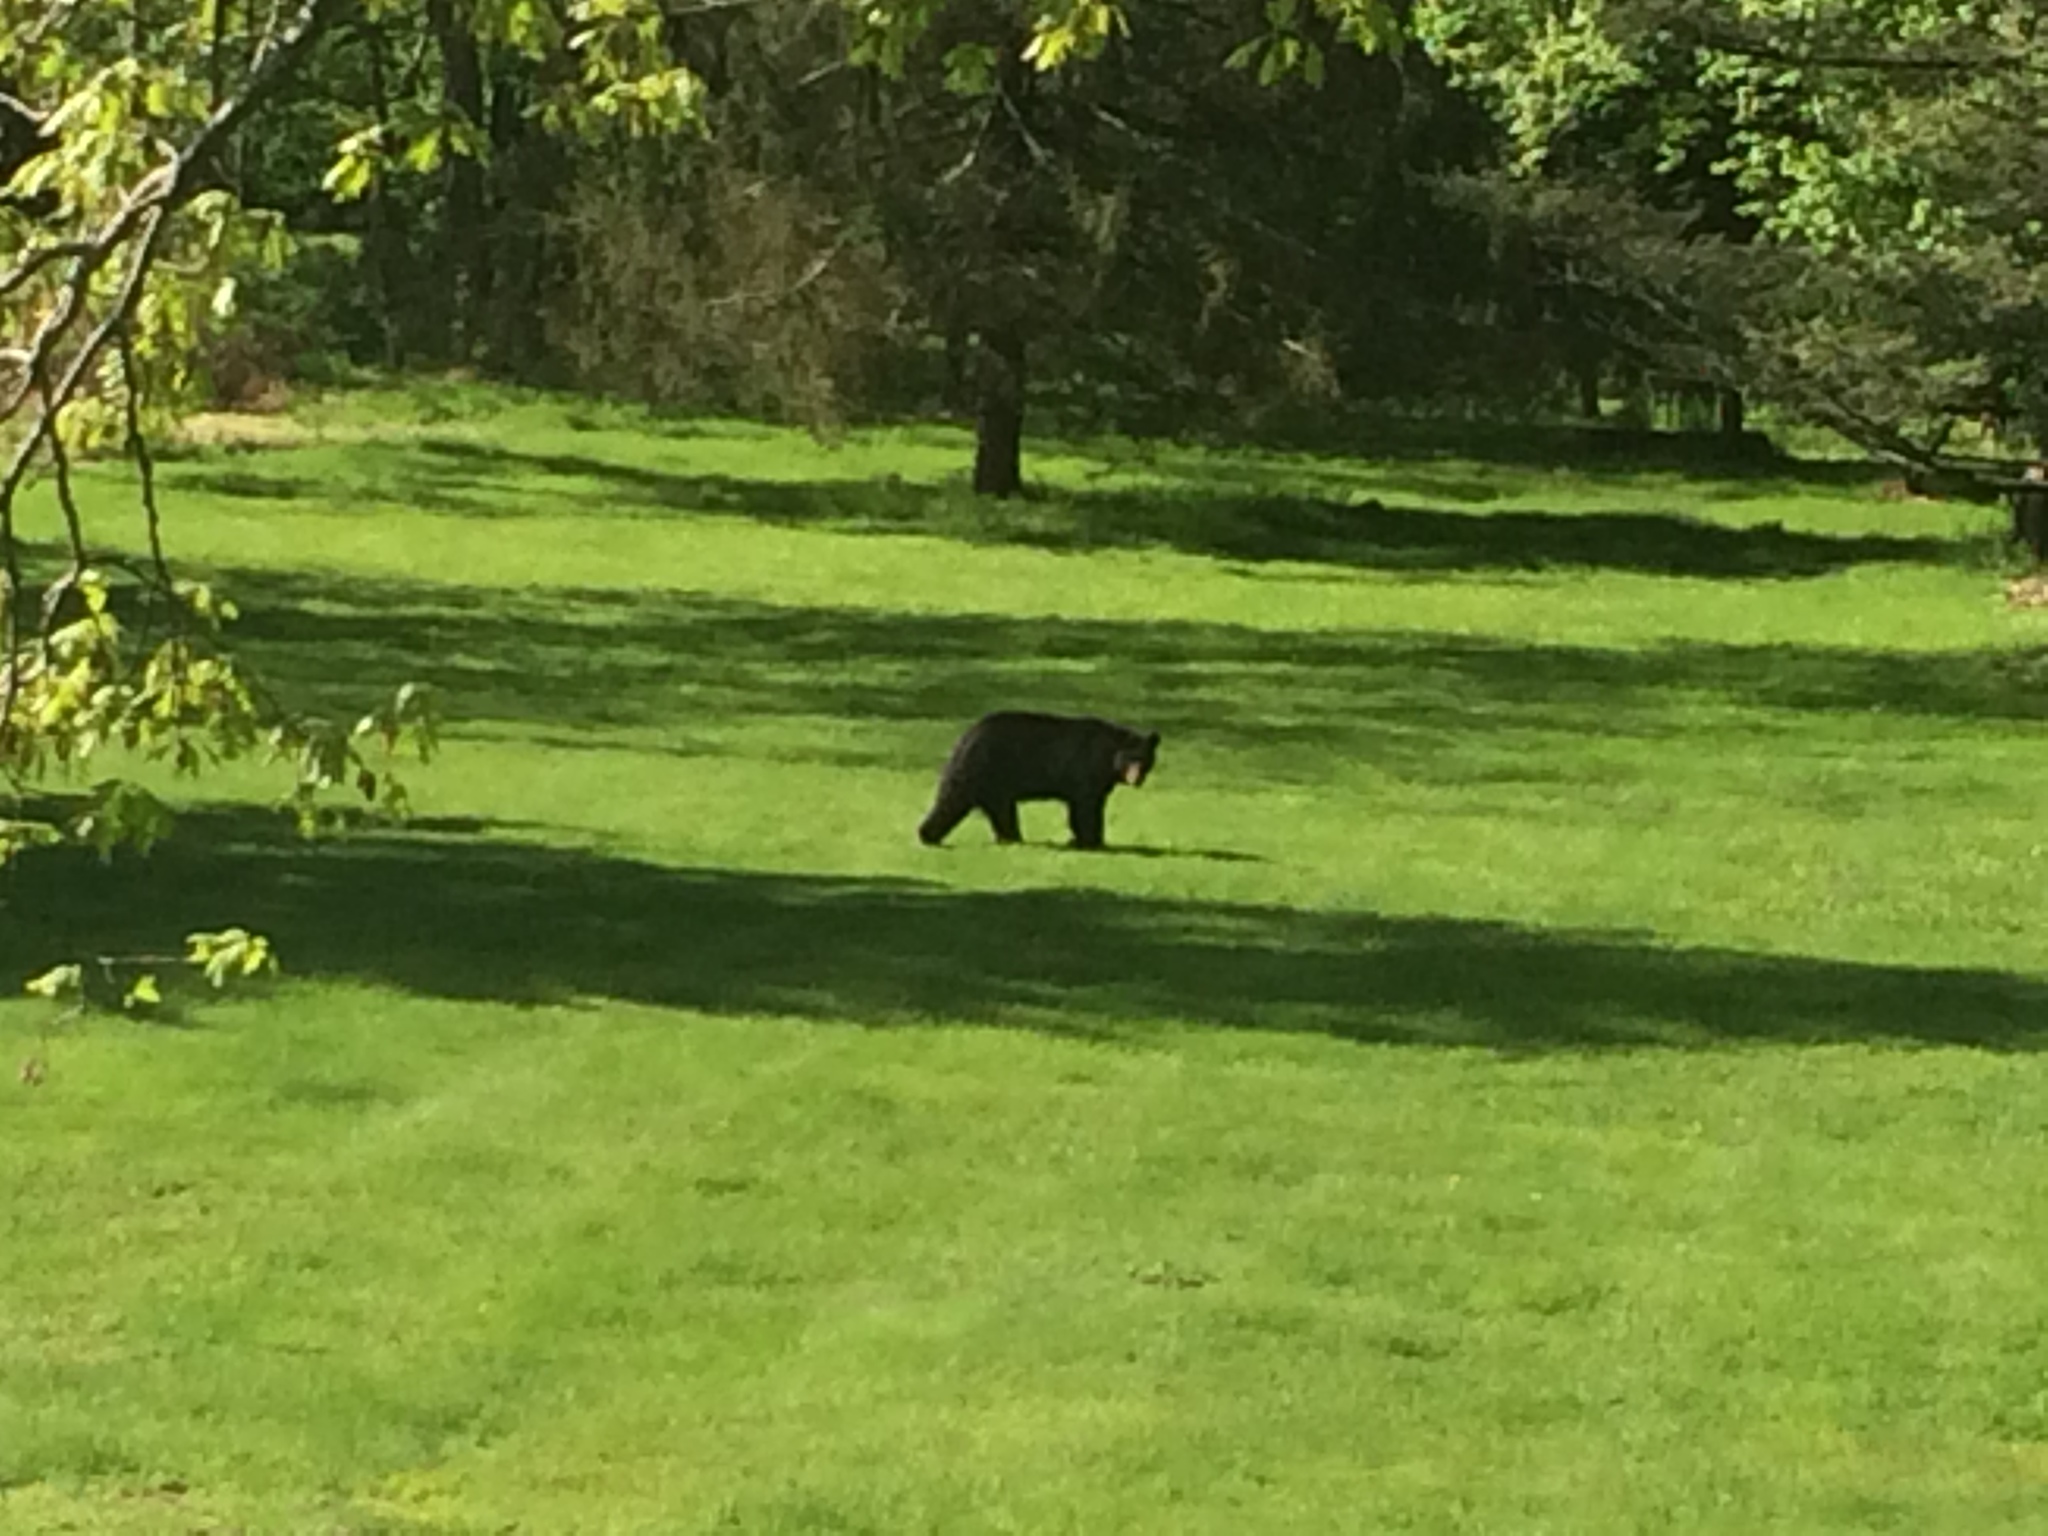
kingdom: Animalia
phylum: Chordata
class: Mammalia
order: Carnivora
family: Ursidae
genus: Ursus
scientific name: Ursus americanus
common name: American black bear
